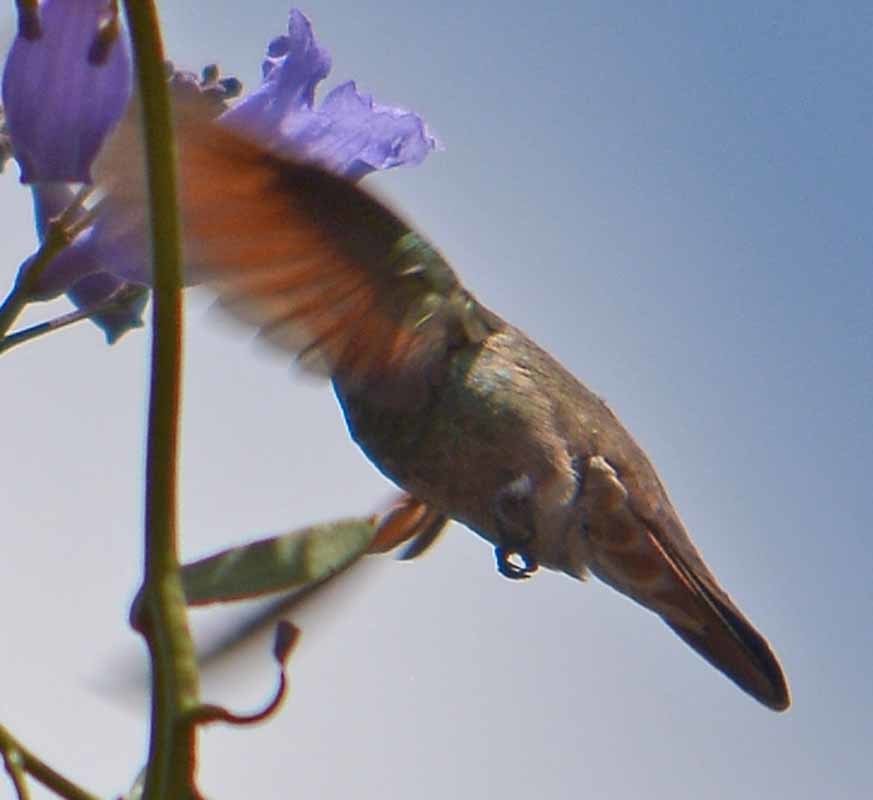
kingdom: Animalia
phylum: Chordata
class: Aves
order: Apodiformes
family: Trochilidae
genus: Saucerottia
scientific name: Saucerottia beryllina
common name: Berylline hummingbird
